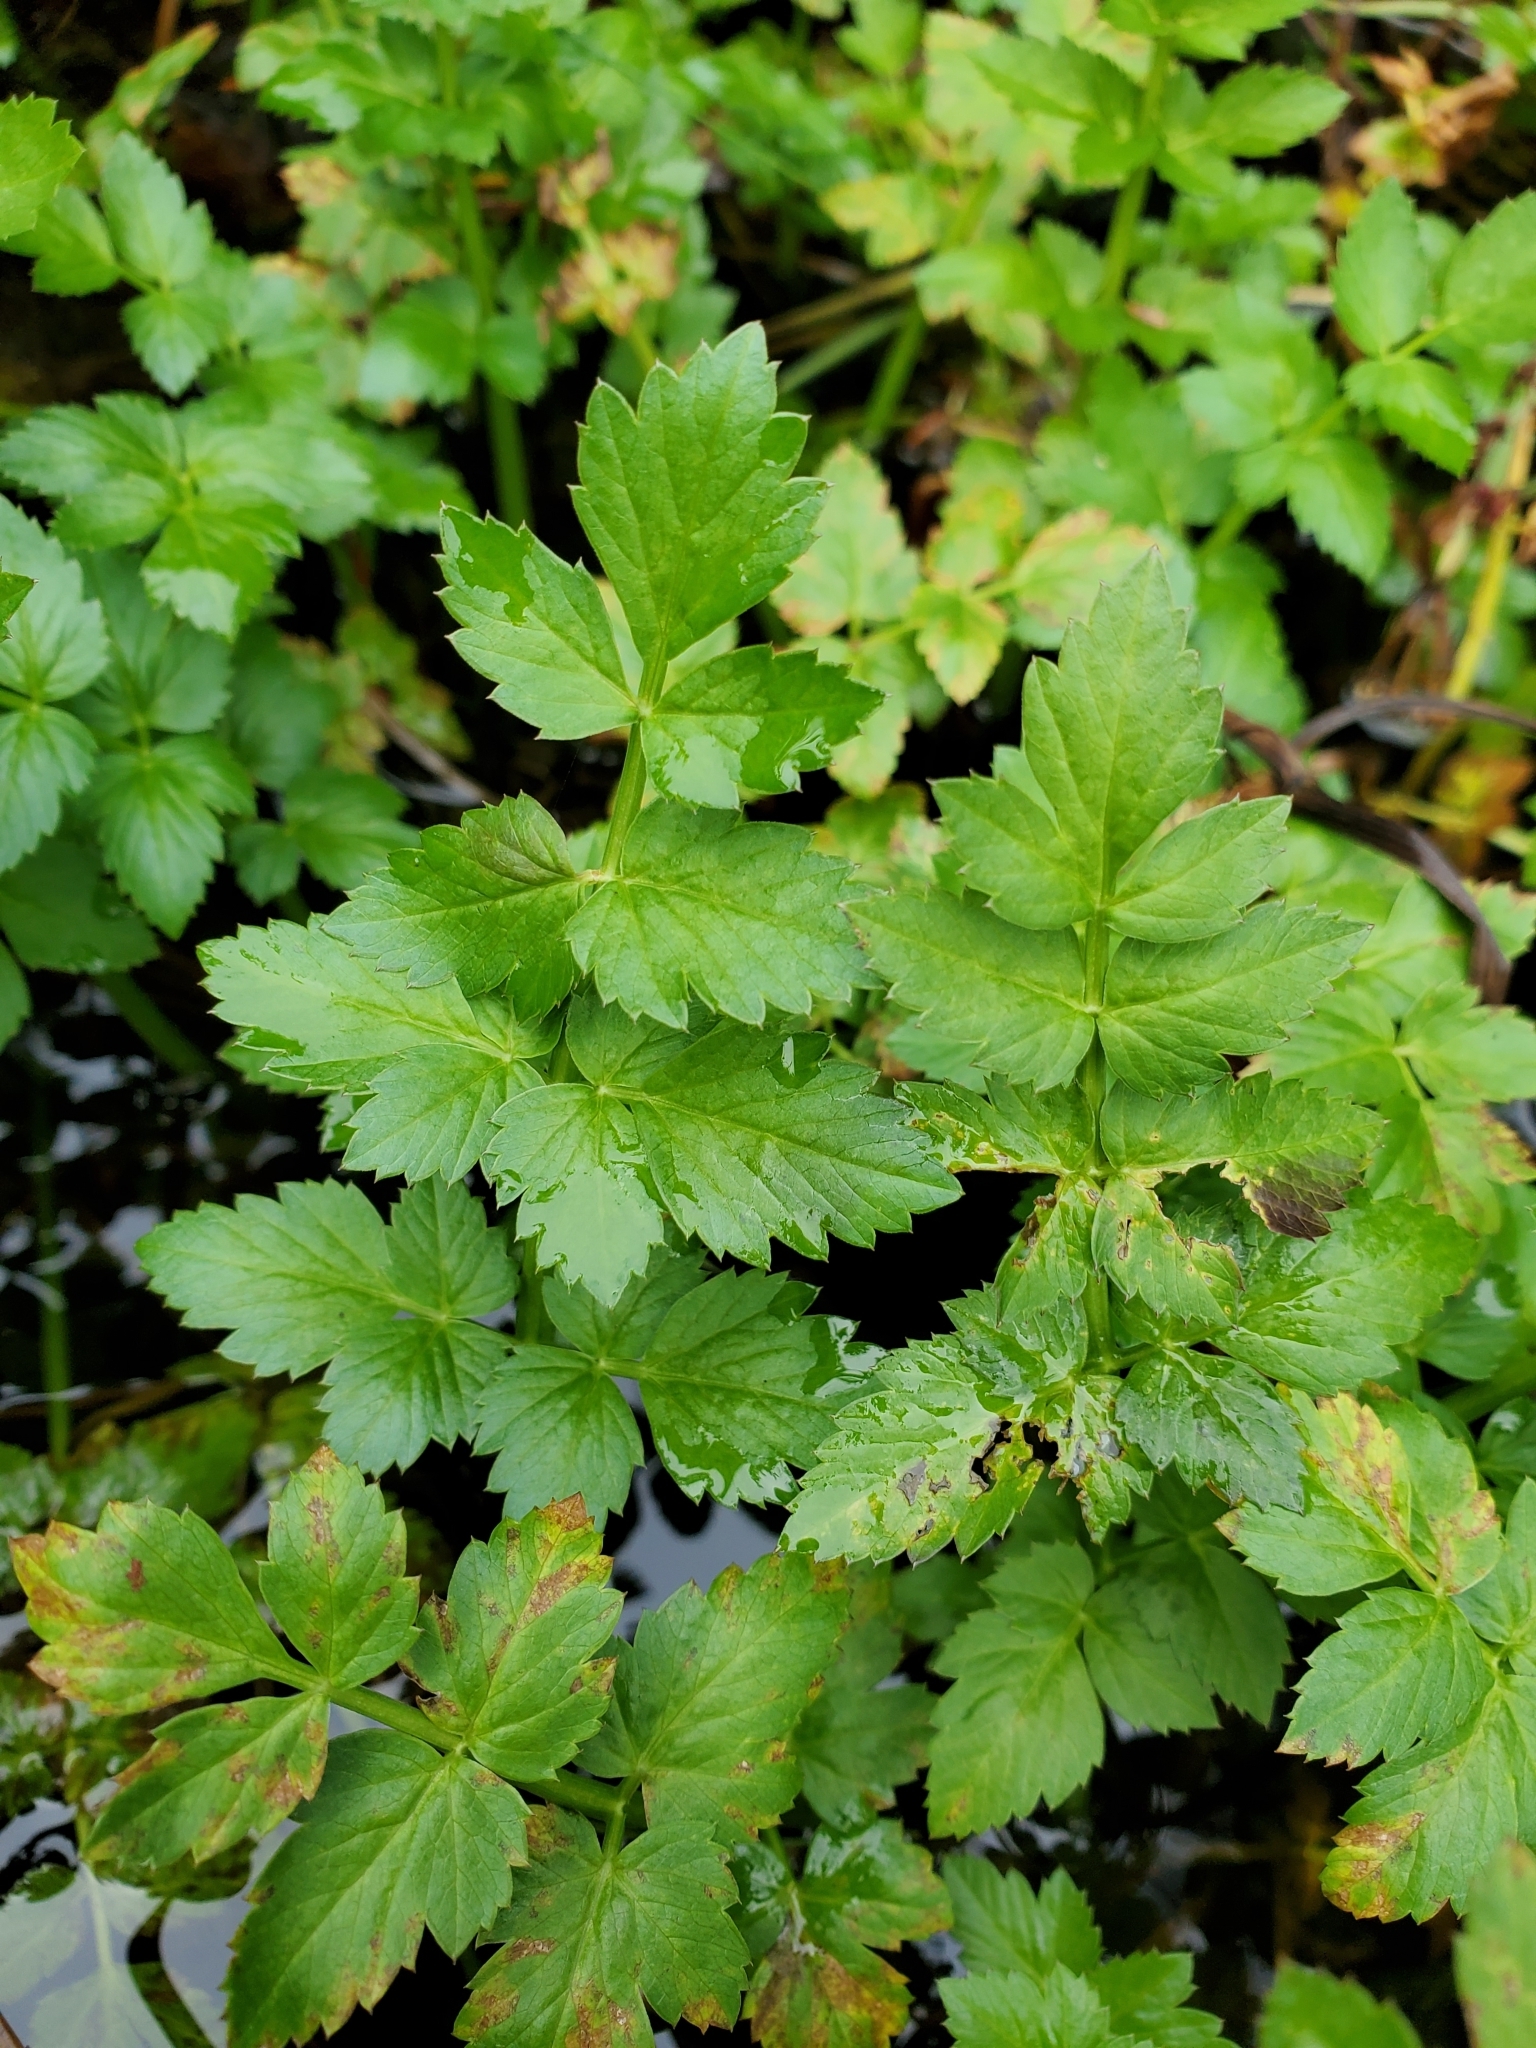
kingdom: Plantae
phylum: Tracheophyta
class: Magnoliopsida
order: Apiales
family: Apiaceae
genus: Oenanthe
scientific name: Oenanthe sarmentosa
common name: American water-parsley
